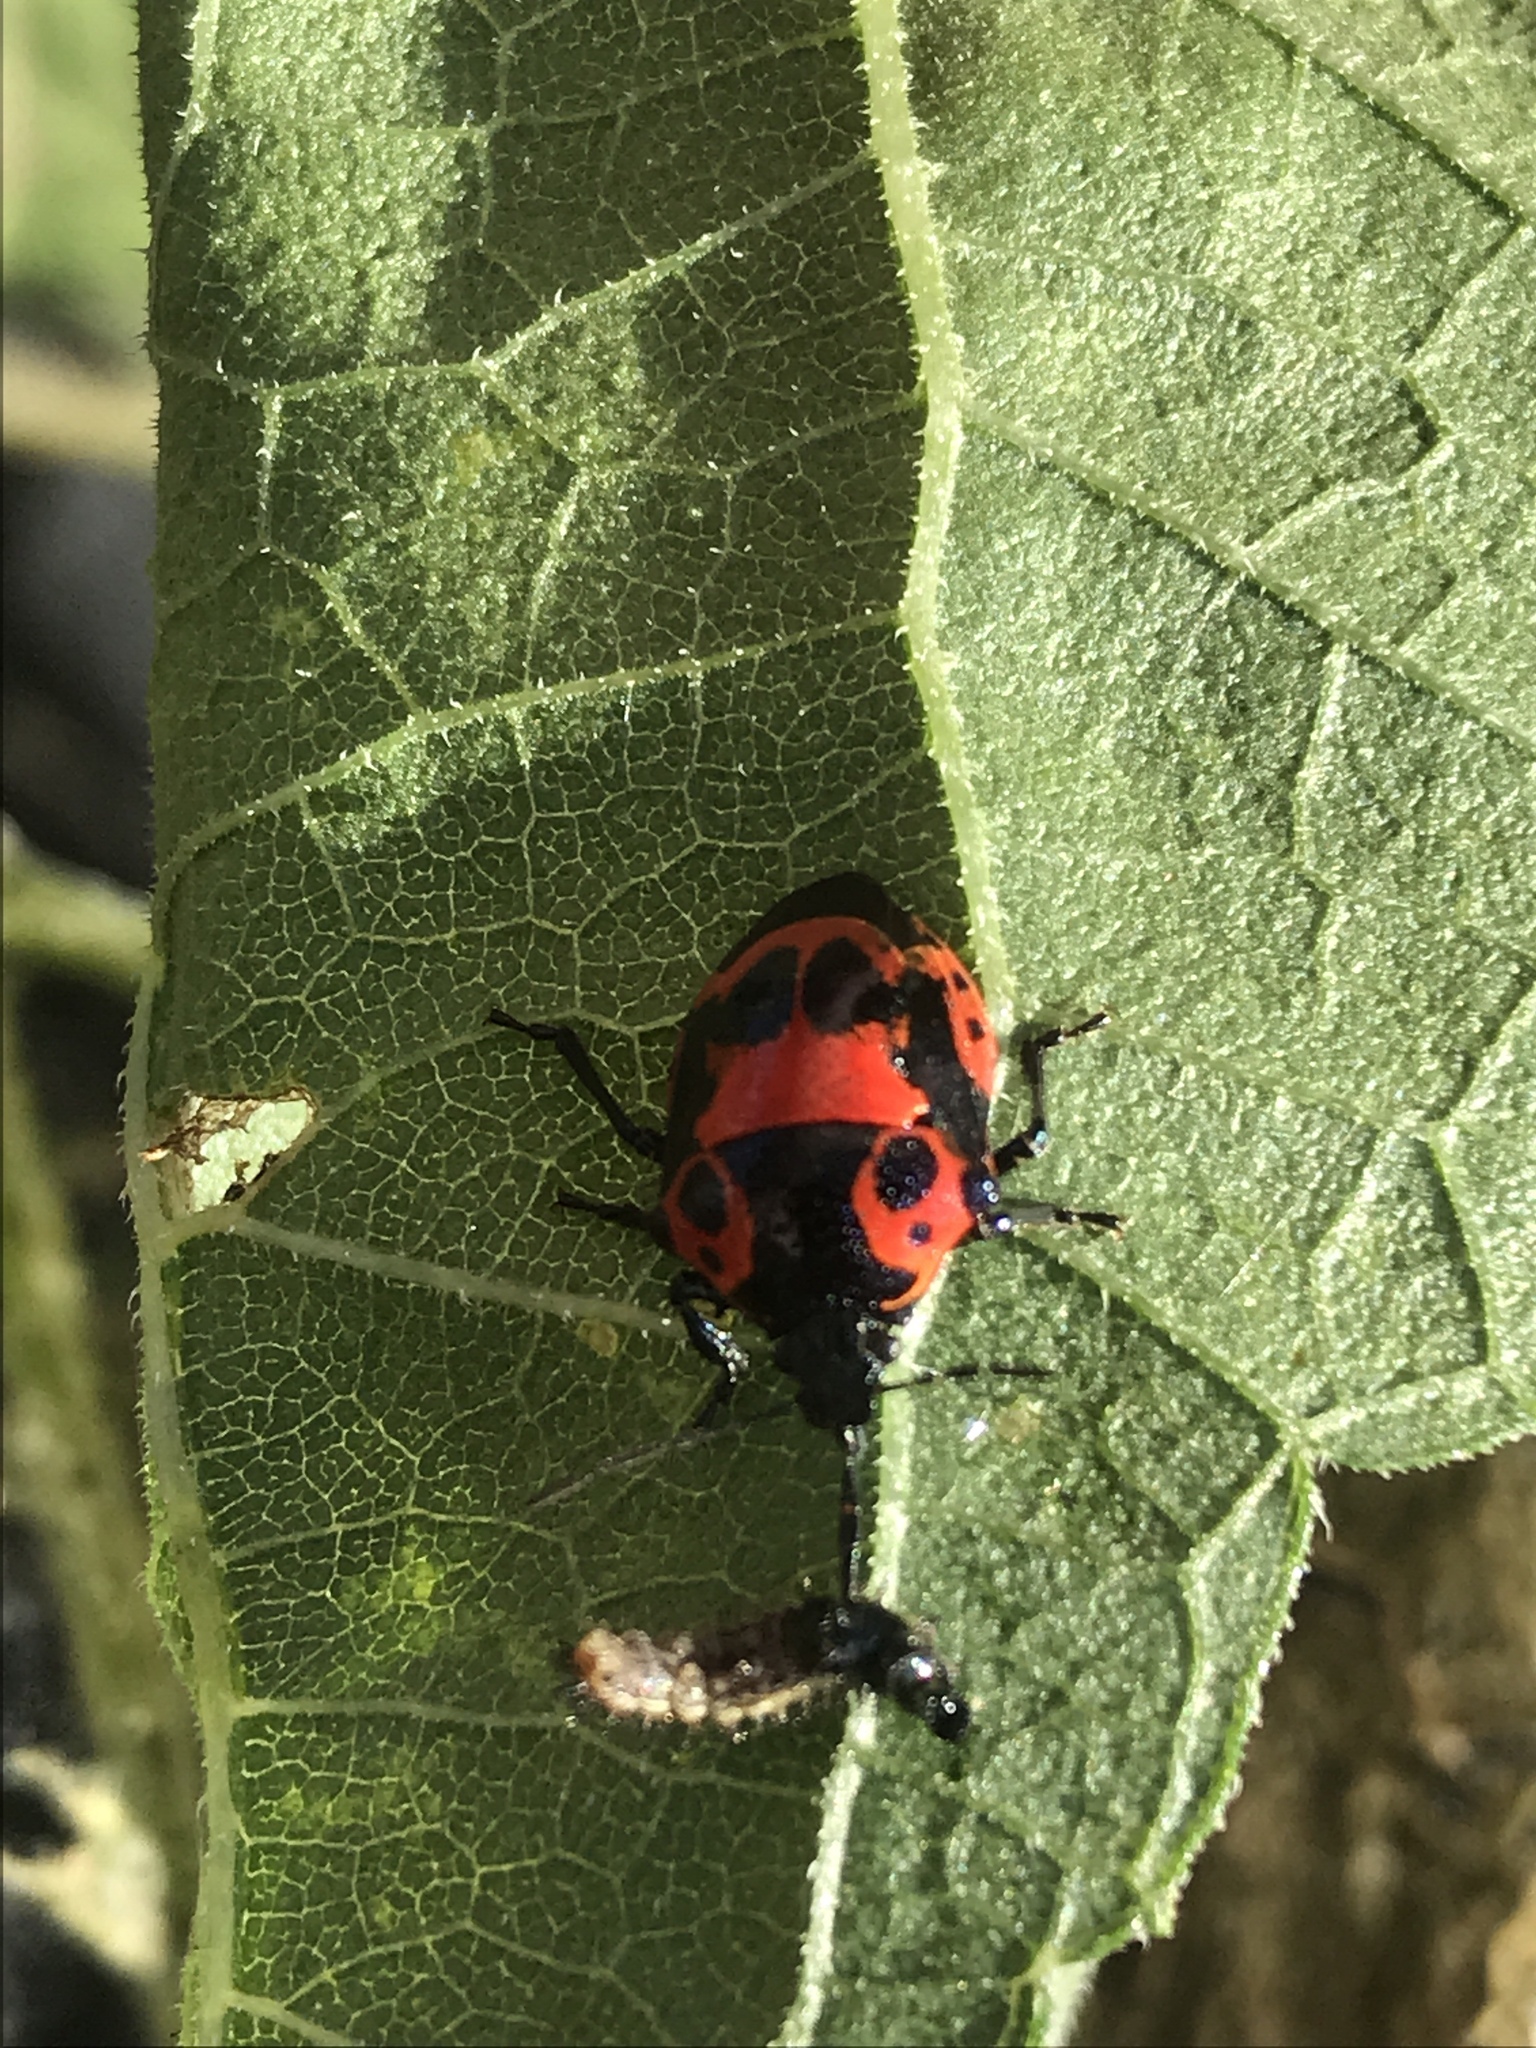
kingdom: Animalia
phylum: Arthropoda
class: Insecta
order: Hemiptera
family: Pentatomidae
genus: Stiretrus
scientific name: Stiretrus anchorago
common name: Anchor stink bug
